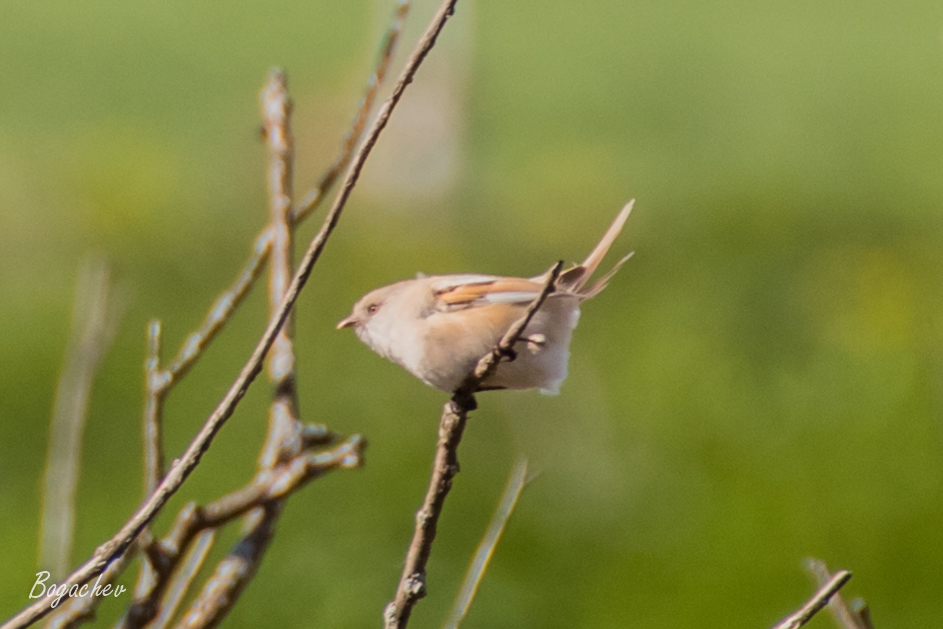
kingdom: Animalia
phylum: Chordata
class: Aves
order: Passeriformes
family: Panuridae
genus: Panurus
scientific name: Panurus biarmicus
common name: Bearded reedling
